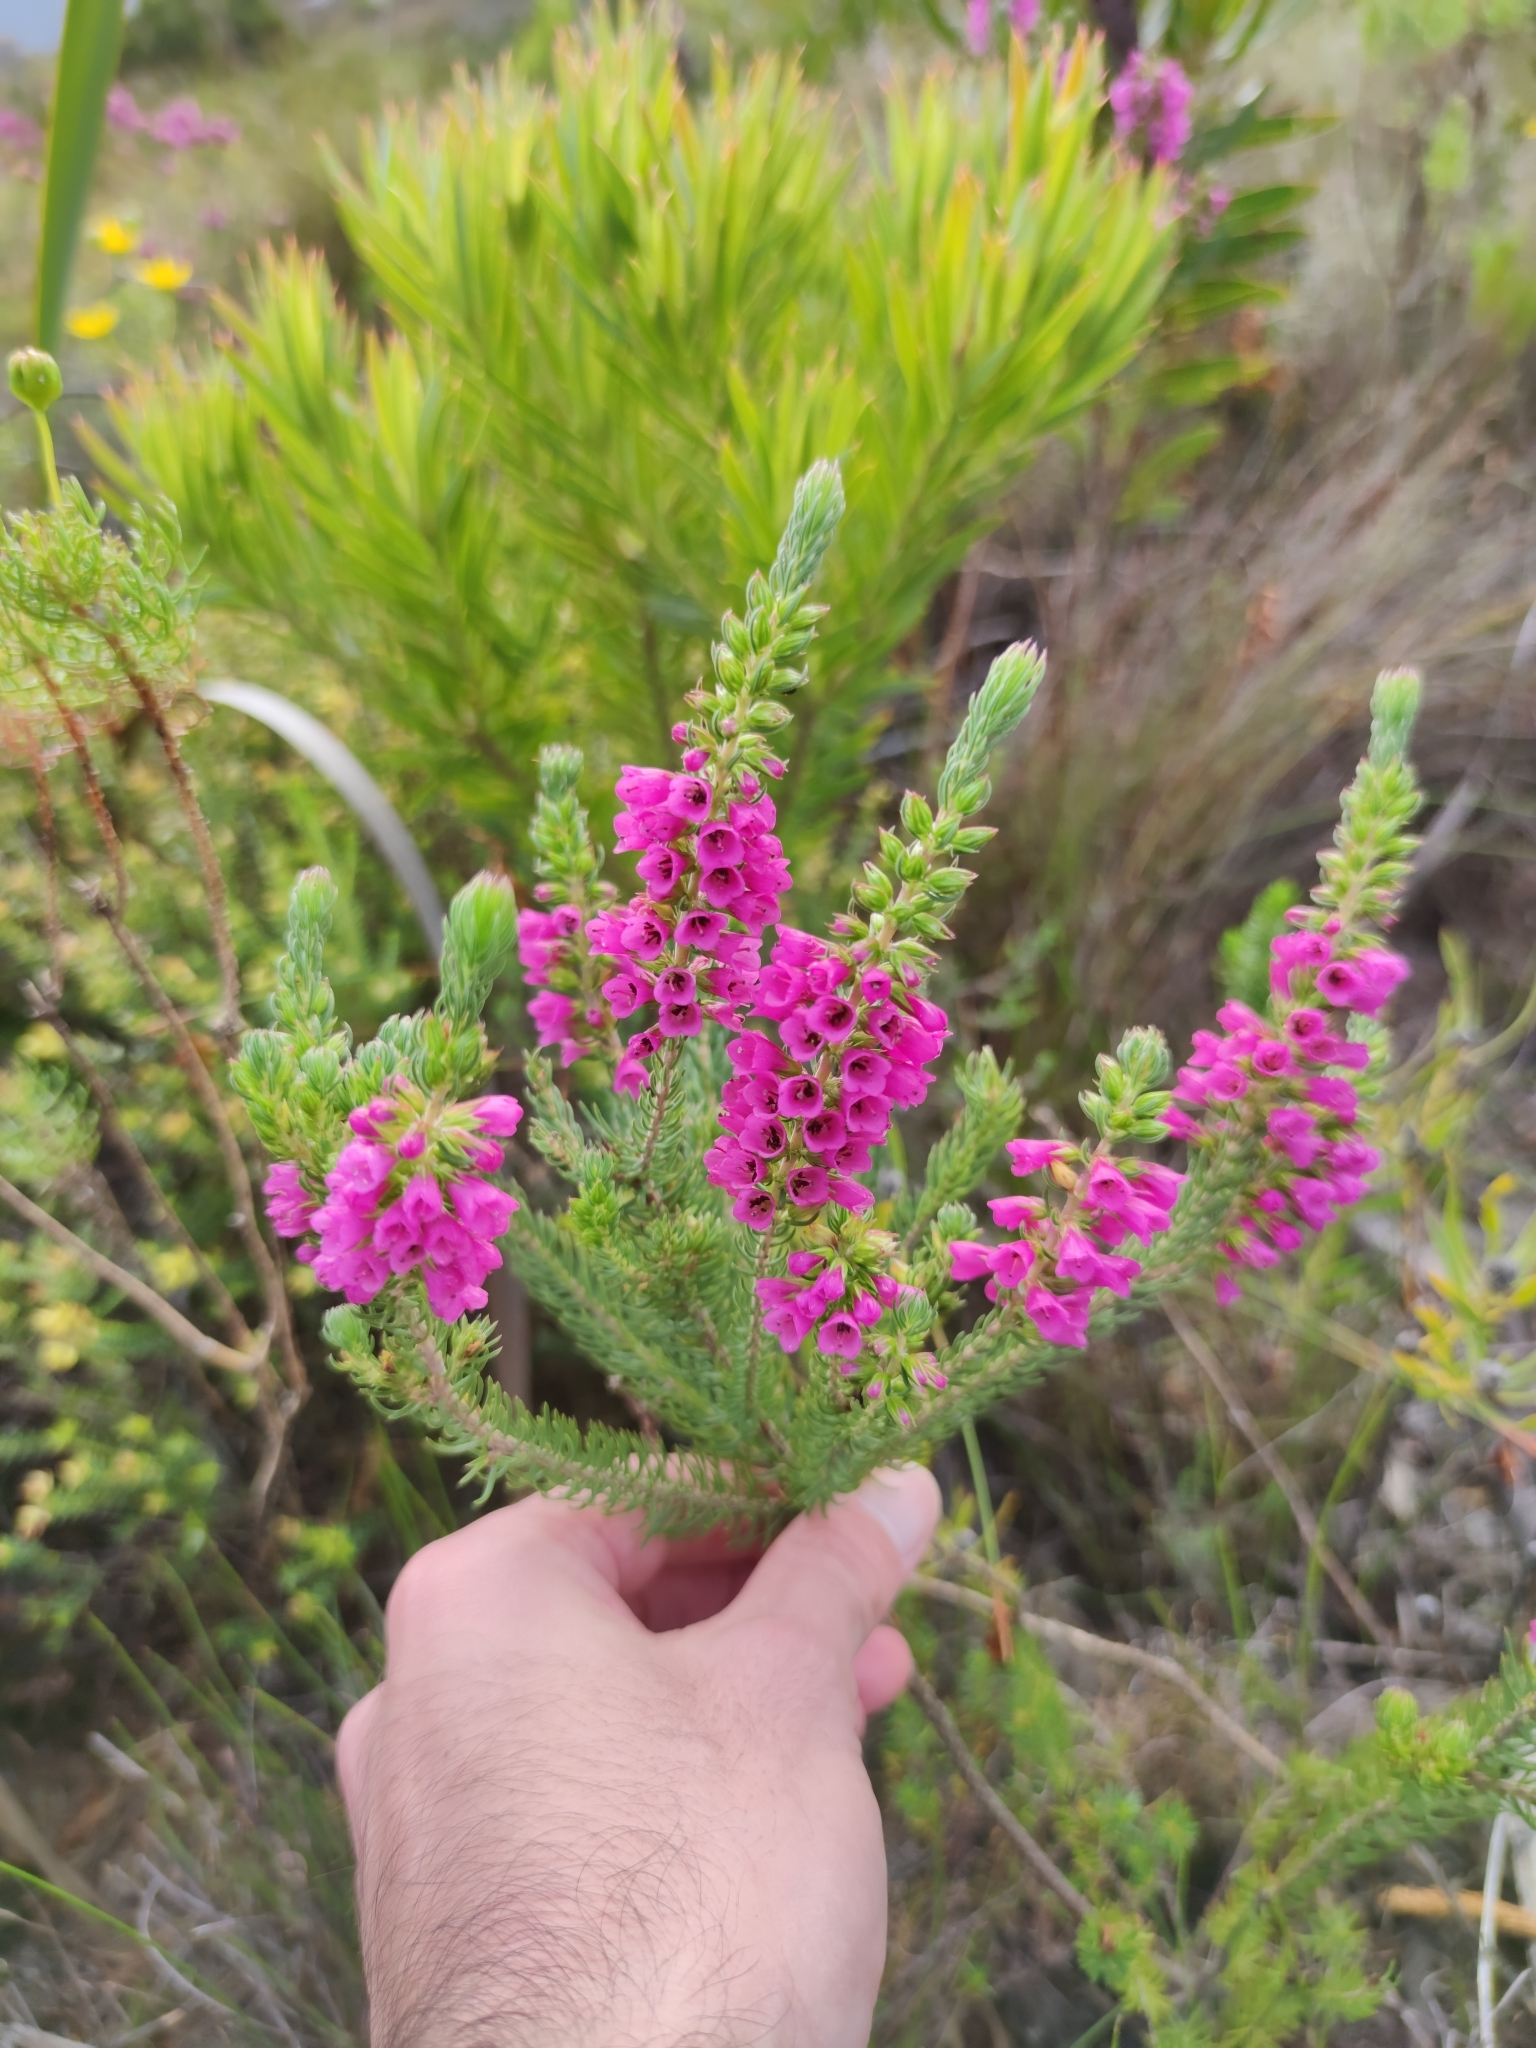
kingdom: Plantae
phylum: Tracheophyta
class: Magnoliopsida
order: Ericales
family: Ericaceae
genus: Erica
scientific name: Erica abietina
